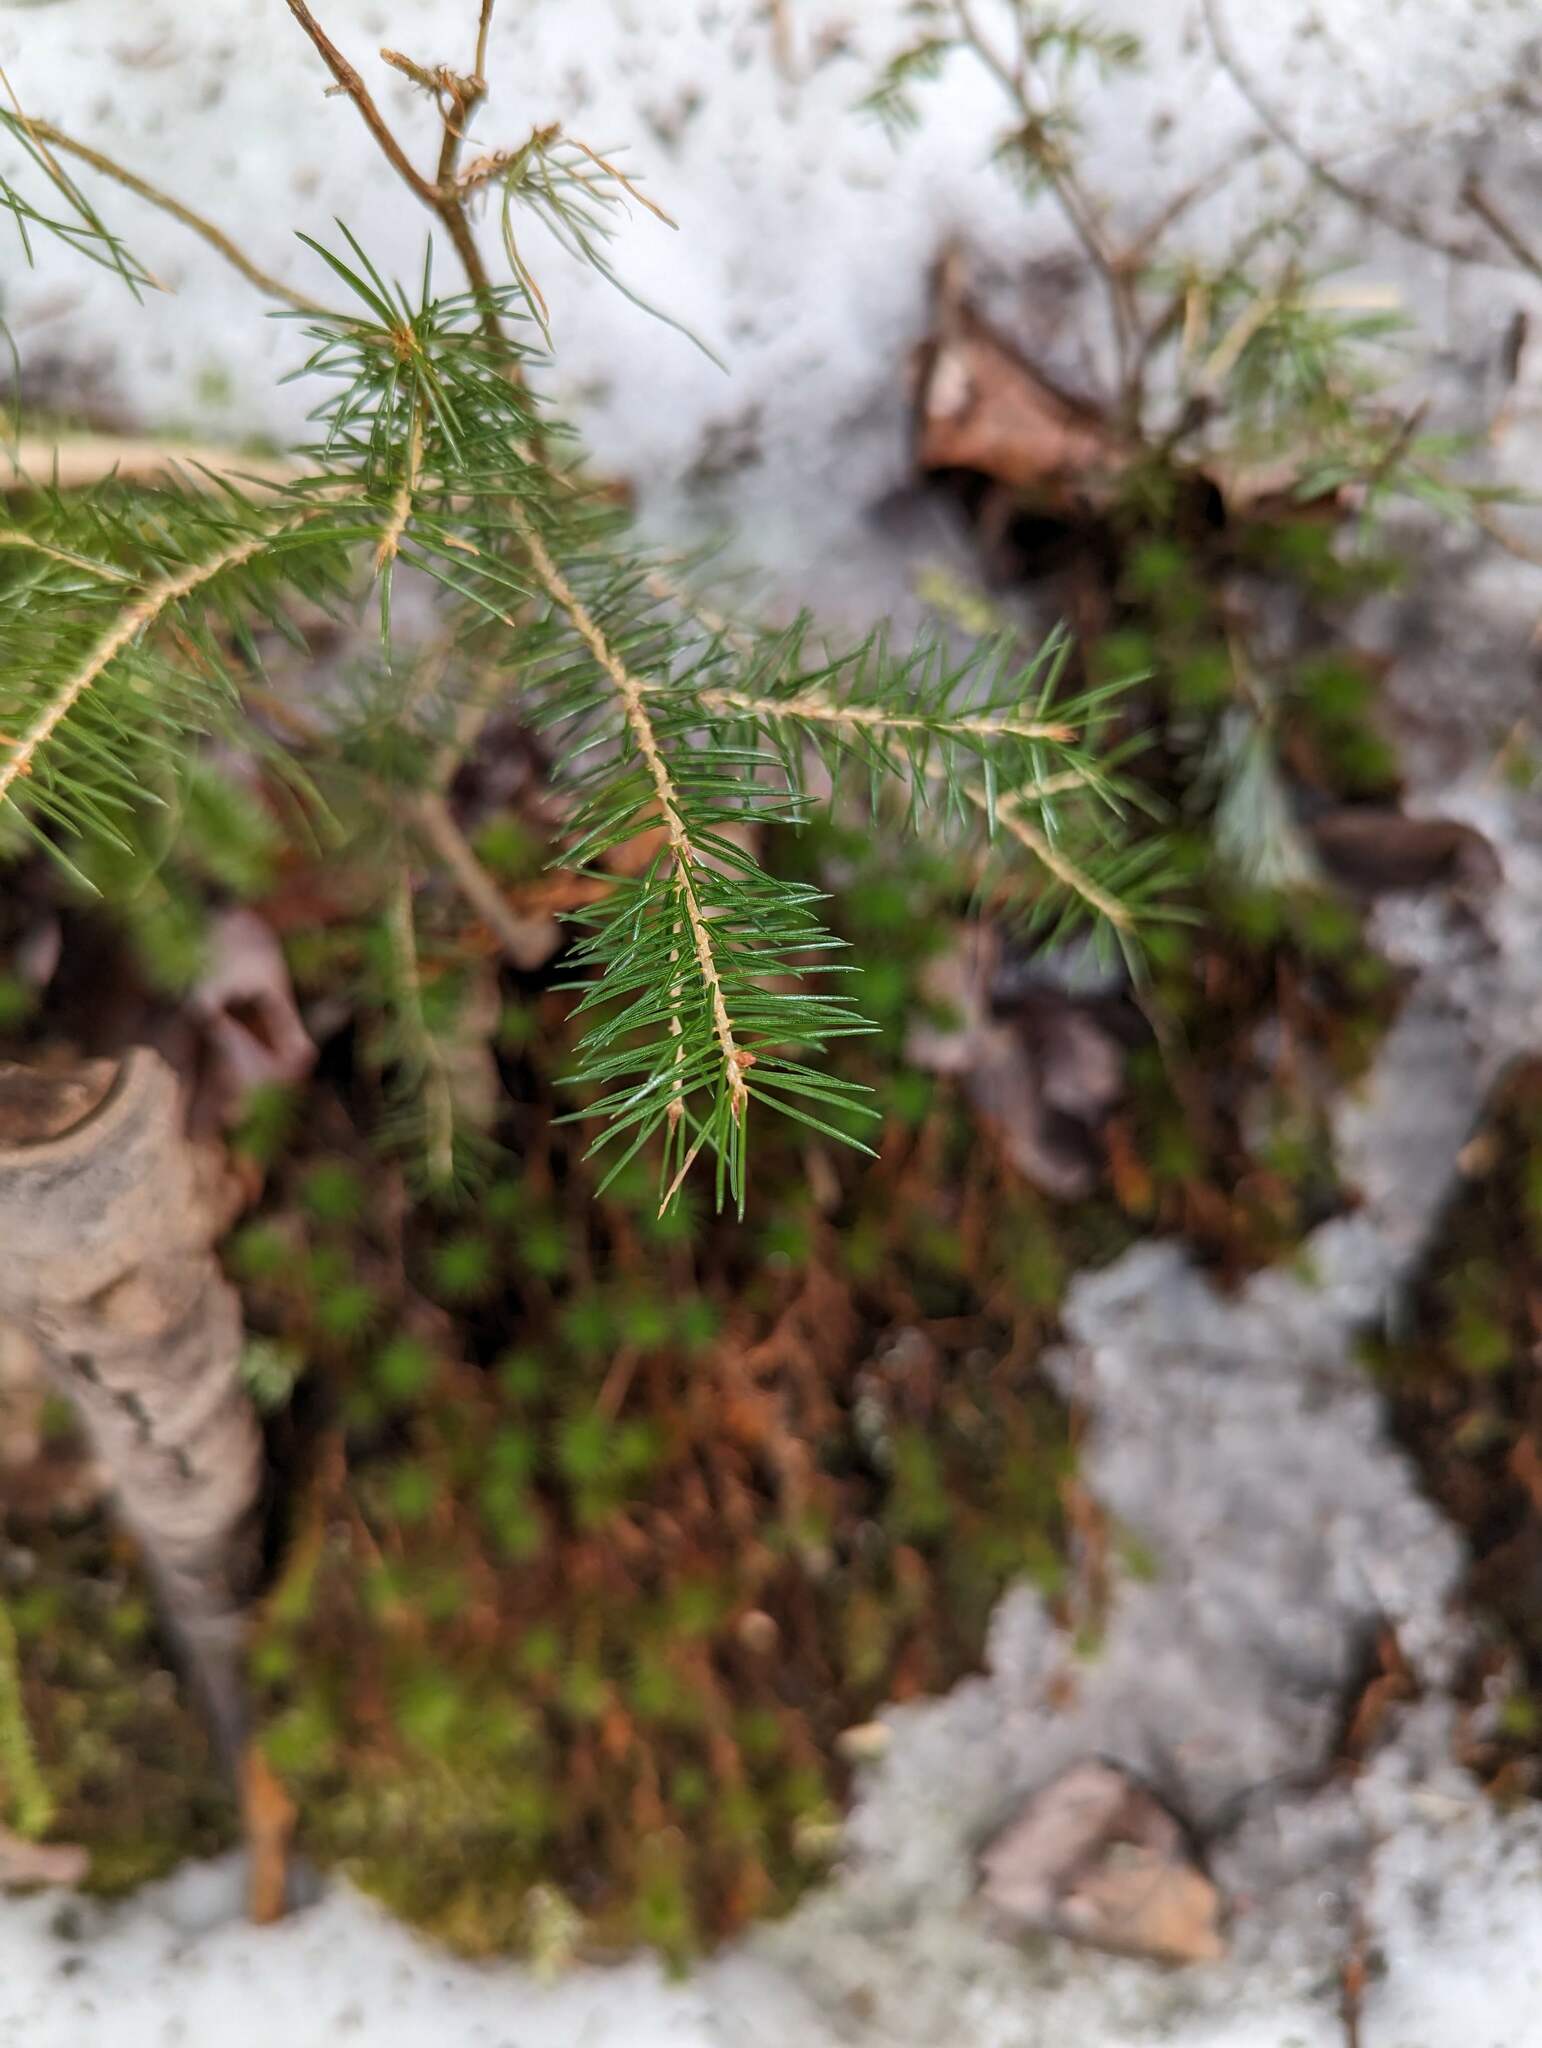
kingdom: Plantae
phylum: Tracheophyta
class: Pinopsida
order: Pinales
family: Pinaceae
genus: Picea
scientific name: Picea rubens
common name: Red spruce
